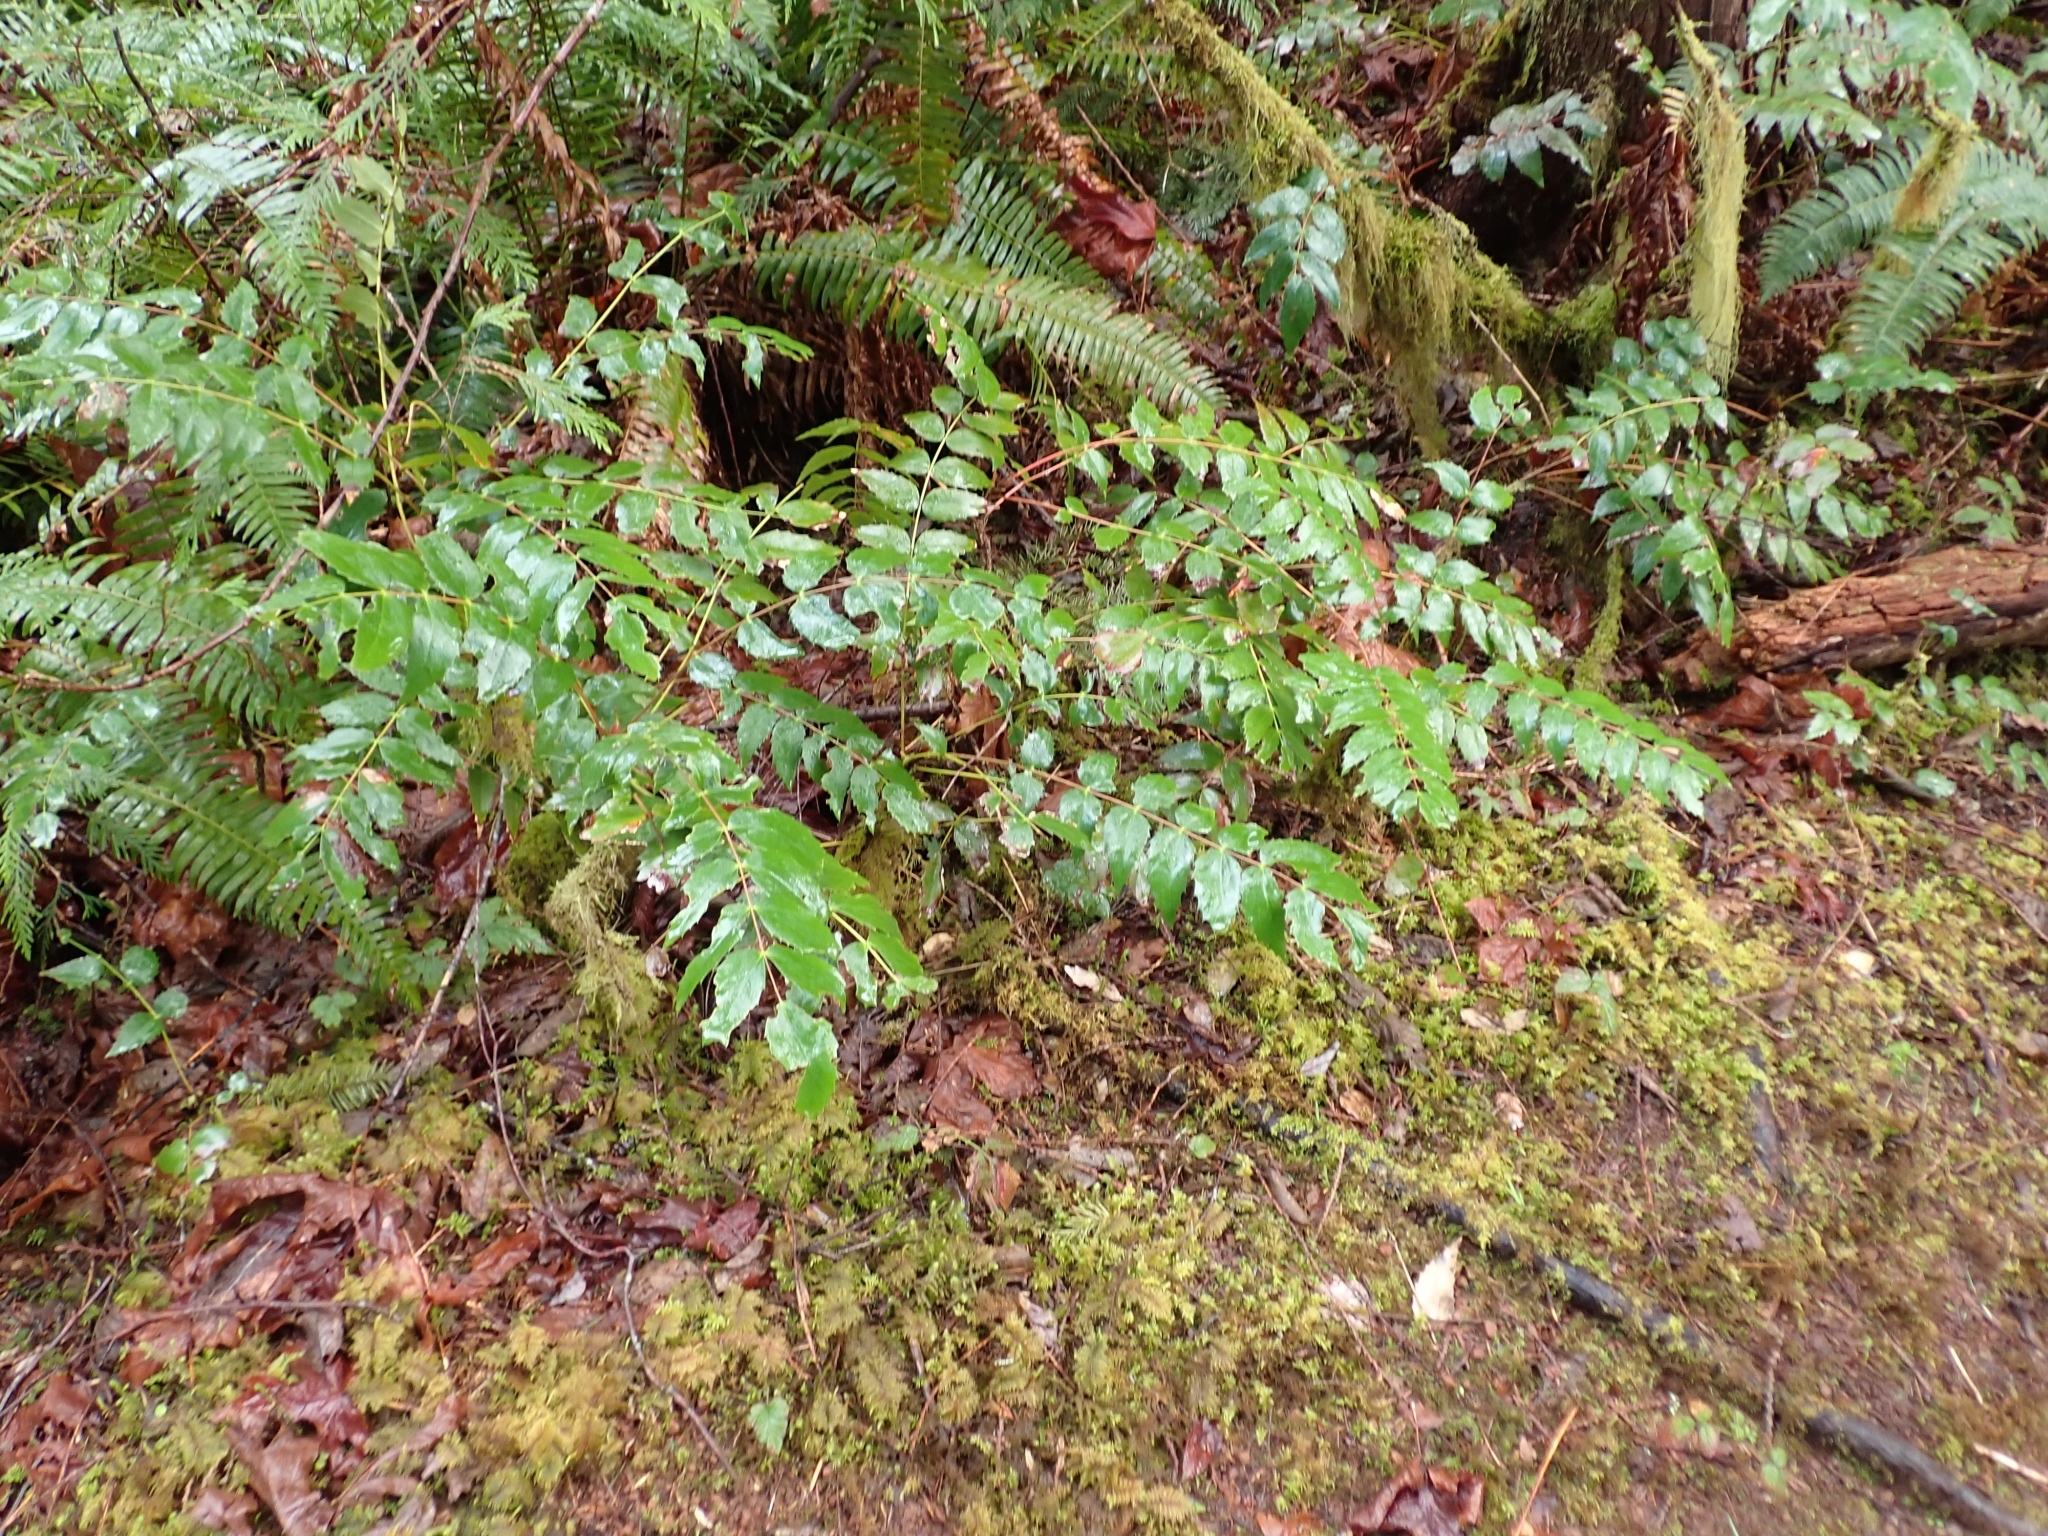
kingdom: Plantae
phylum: Tracheophyta
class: Magnoliopsida
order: Ranunculales
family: Berberidaceae
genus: Mahonia
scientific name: Mahonia nervosa
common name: Cascade oregon-grape
